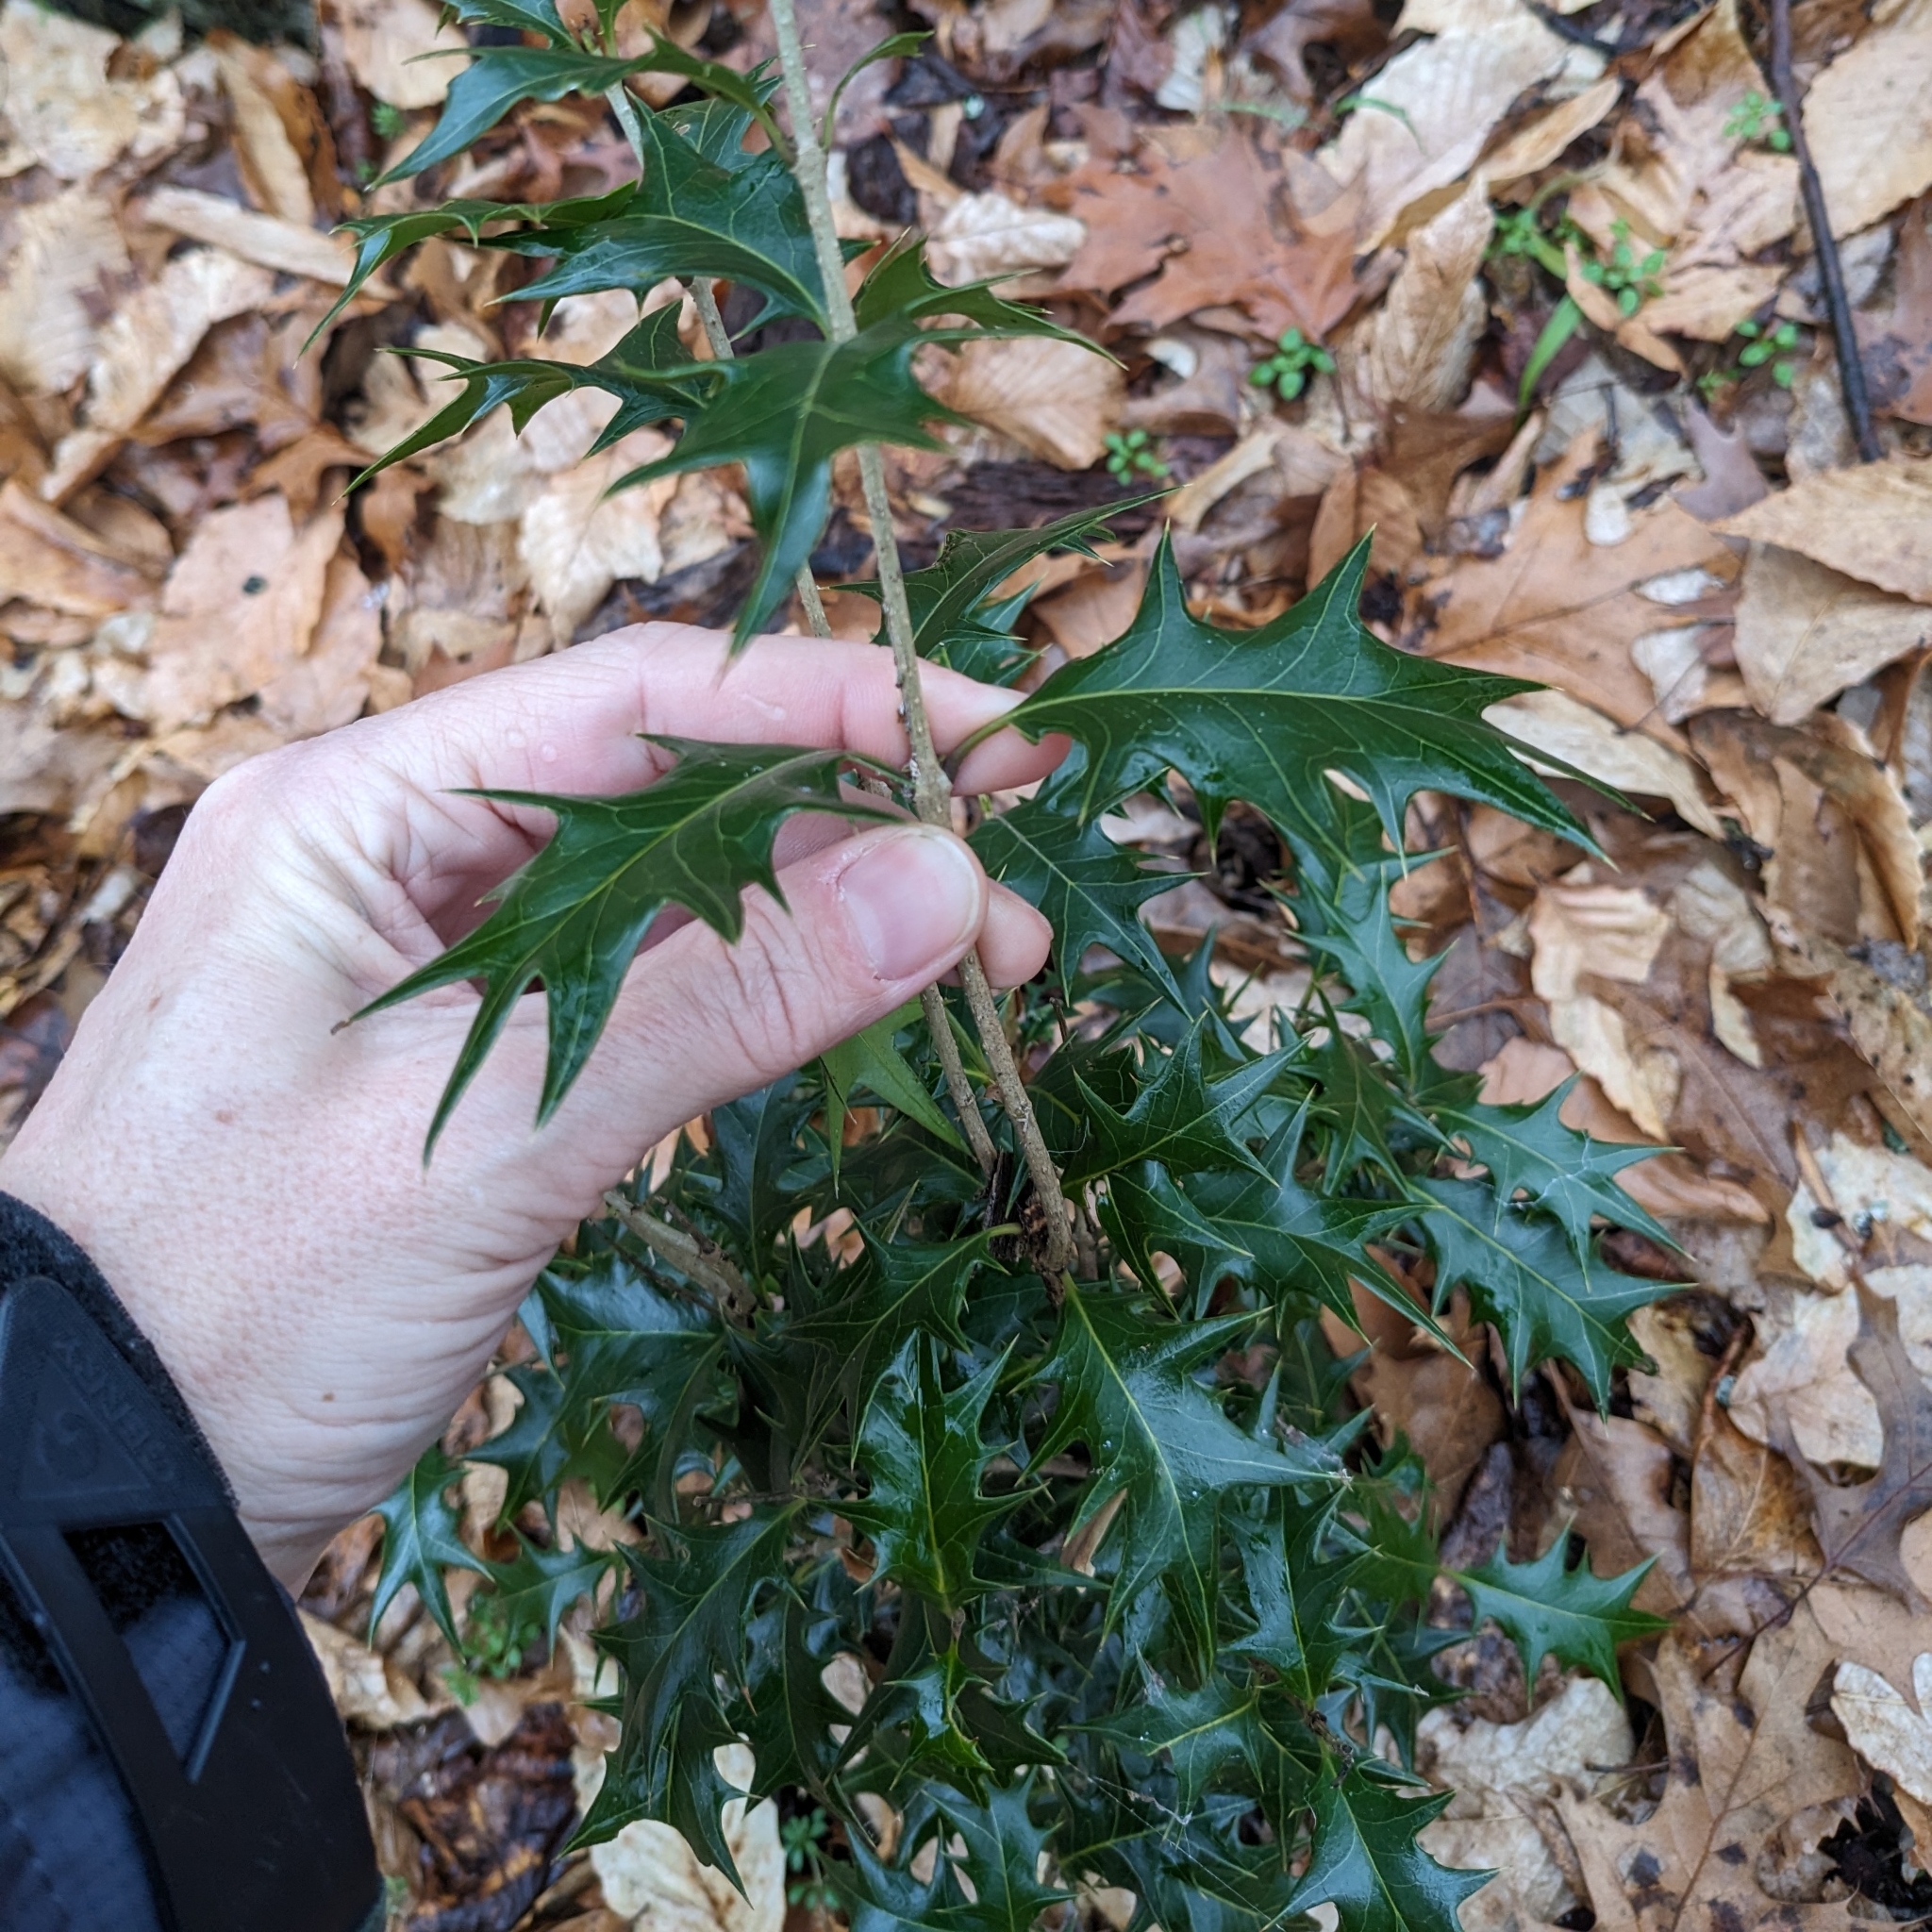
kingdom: Plantae
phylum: Tracheophyta
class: Magnoliopsida
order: Lamiales
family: Oleaceae
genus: Osmanthus
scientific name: Osmanthus heterophyllus
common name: Holly osmanthus
